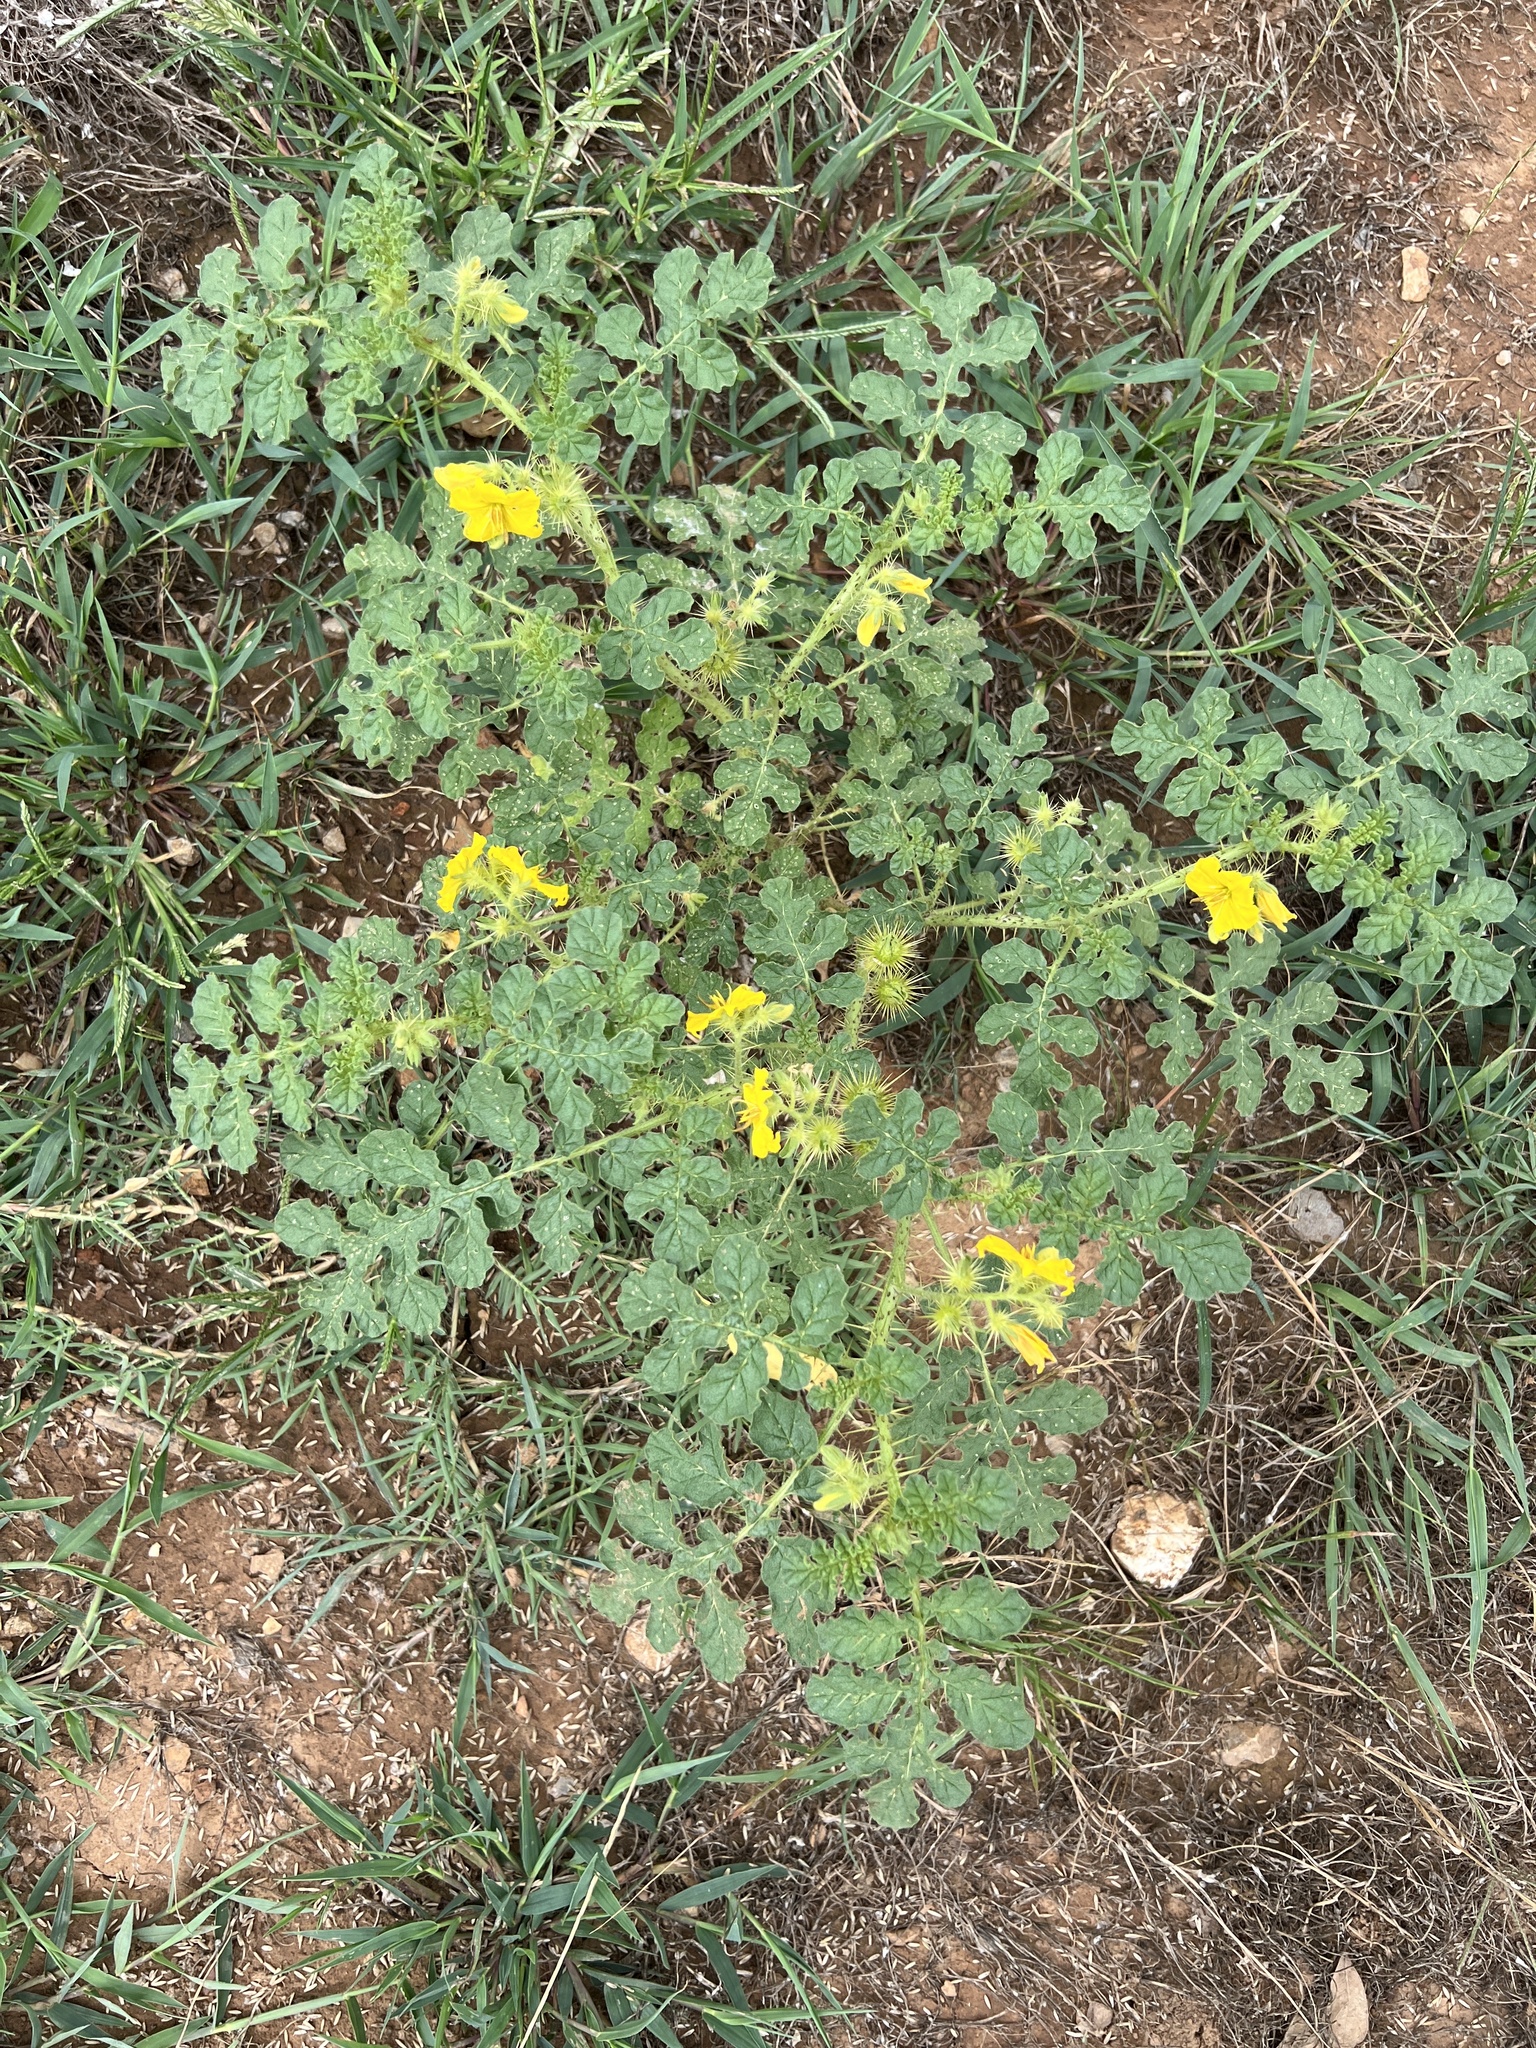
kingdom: Plantae
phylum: Tracheophyta
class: Magnoliopsida
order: Solanales
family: Solanaceae
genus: Solanum
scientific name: Solanum angustifolium
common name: Buffalobur nightshade
